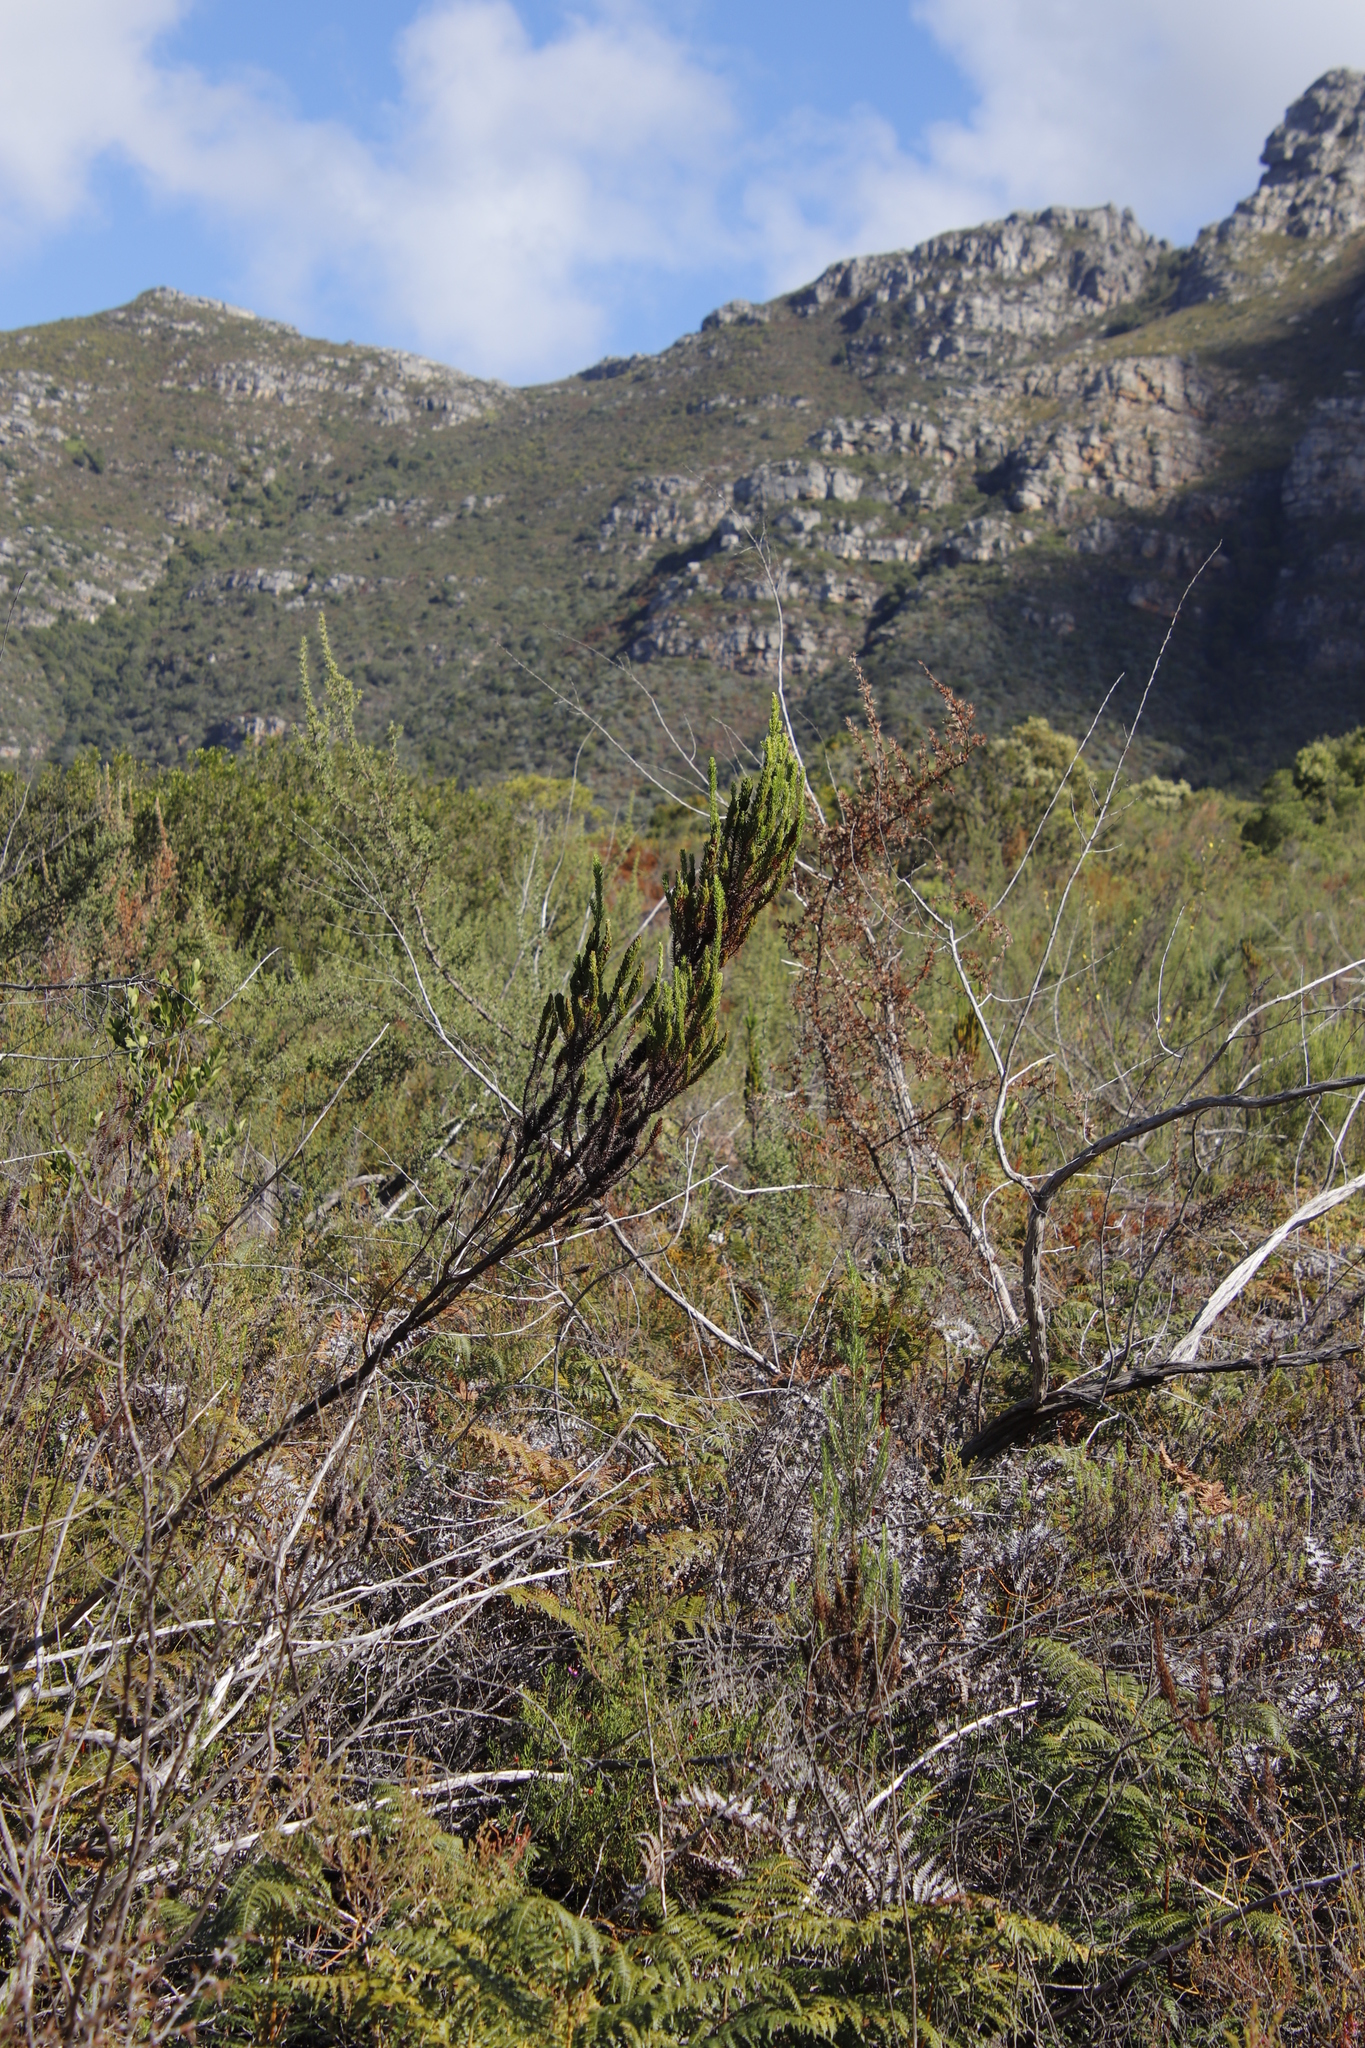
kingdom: Plantae
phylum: Tracheophyta
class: Magnoliopsida
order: Gentianales
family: Rubiaceae
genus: Anthospermum
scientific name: Anthospermum aethiopicum
